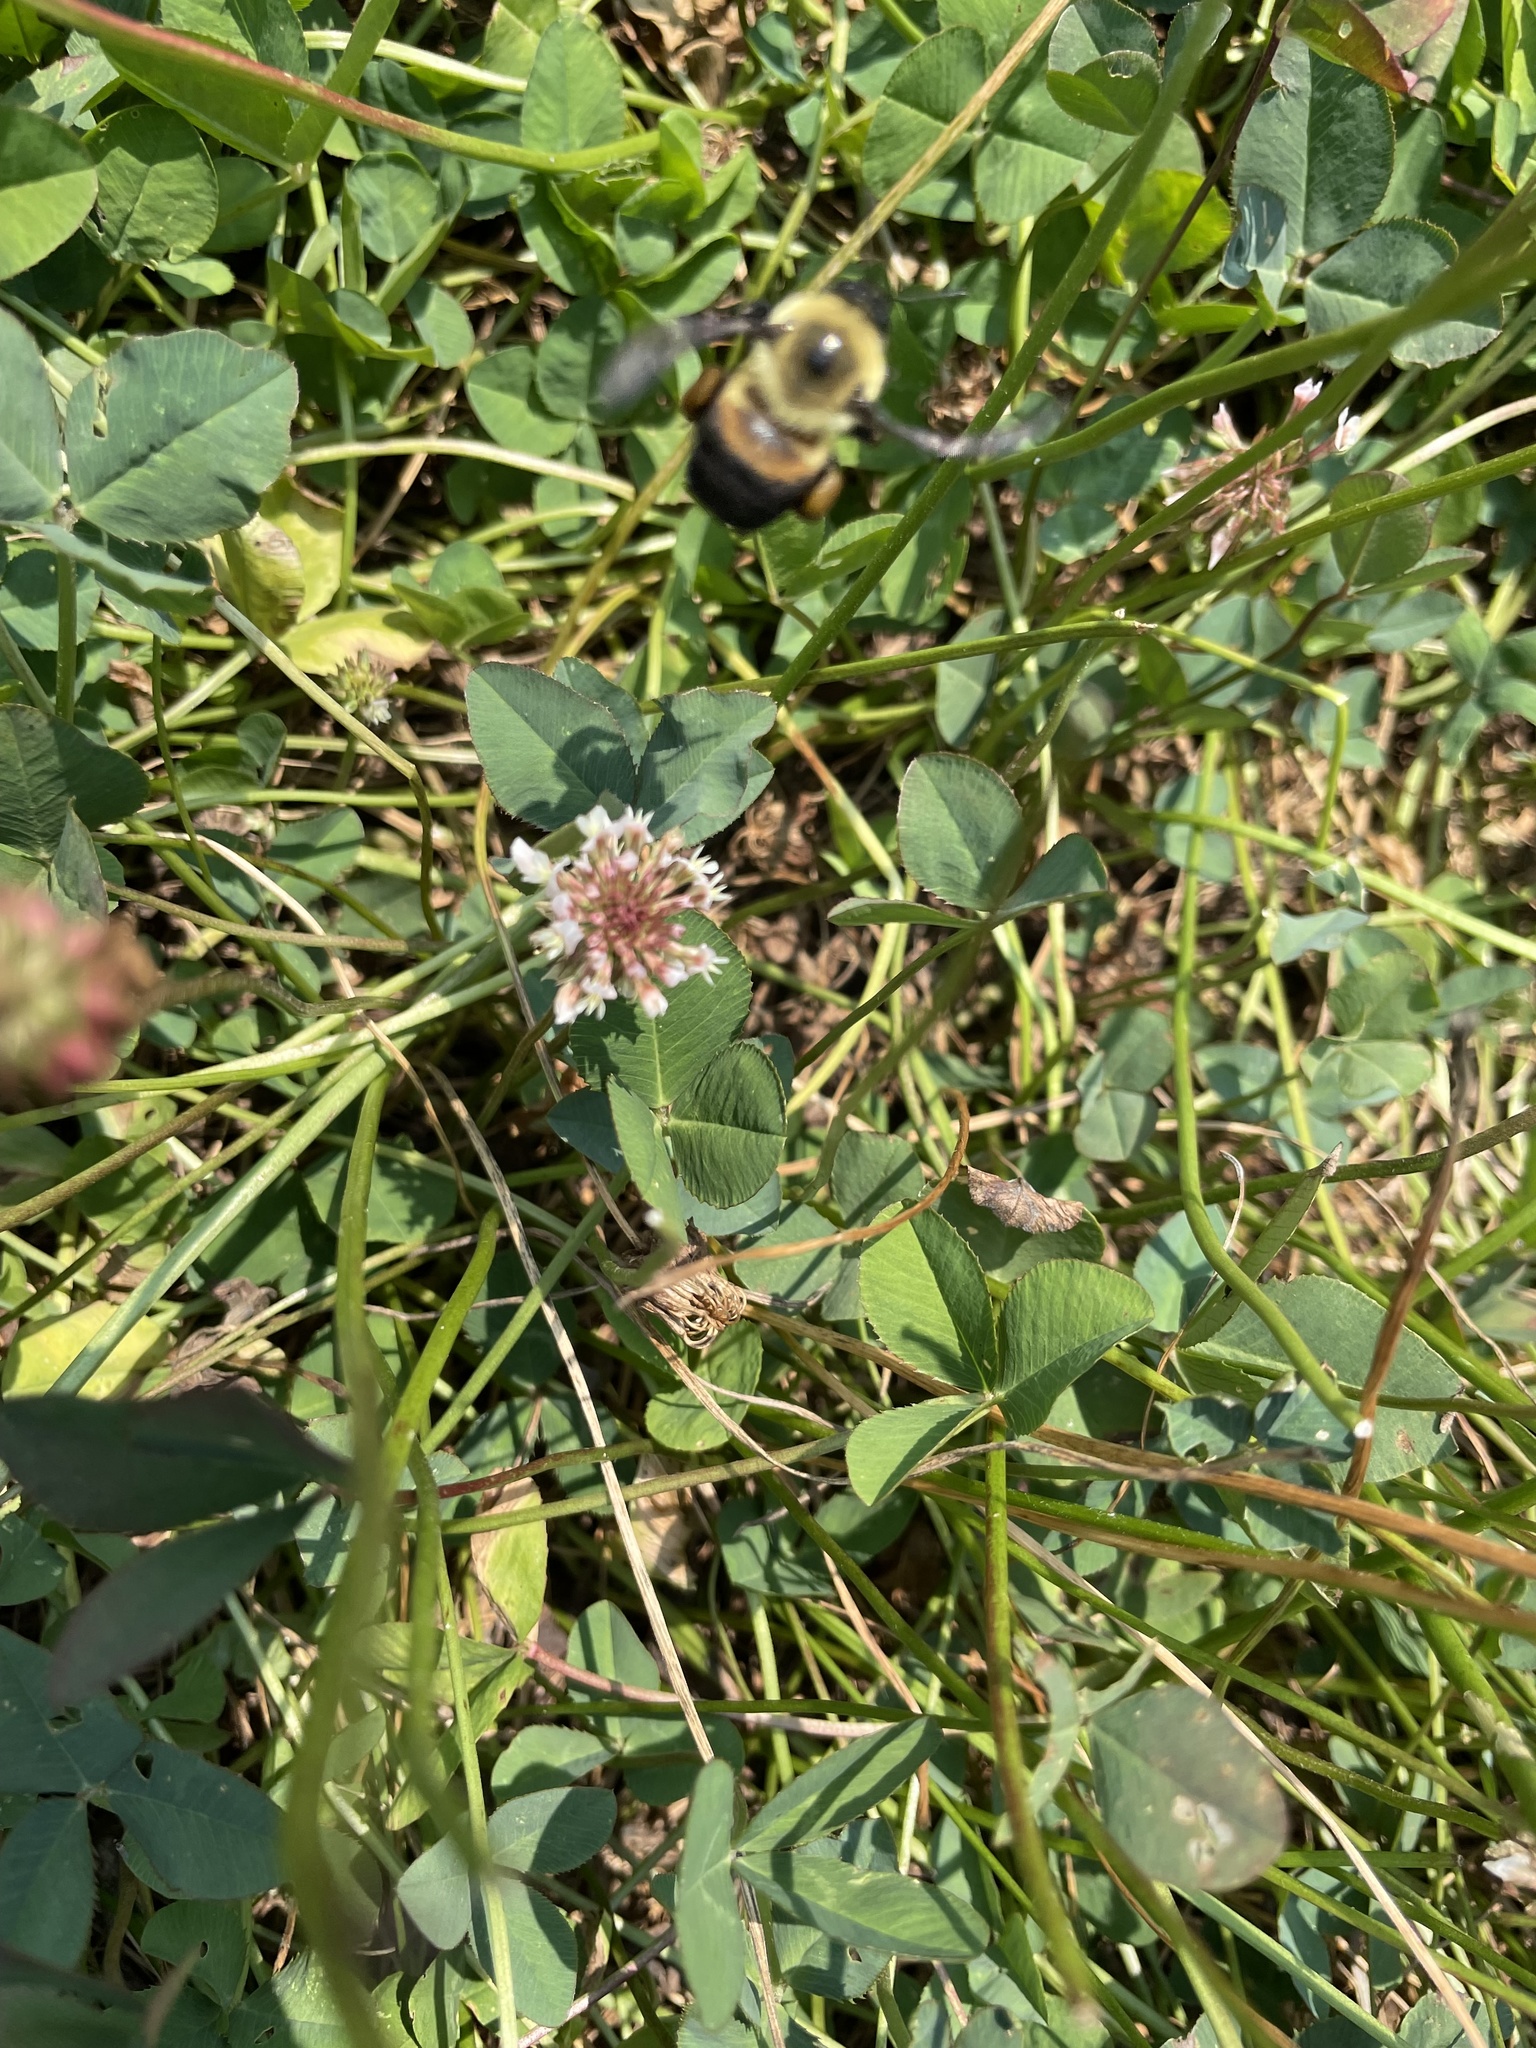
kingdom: Animalia
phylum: Arthropoda
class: Insecta
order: Hymenoptera
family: Apidae
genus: Bombus
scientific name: Bombus griseocollis
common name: Brown-belted bumble bee
